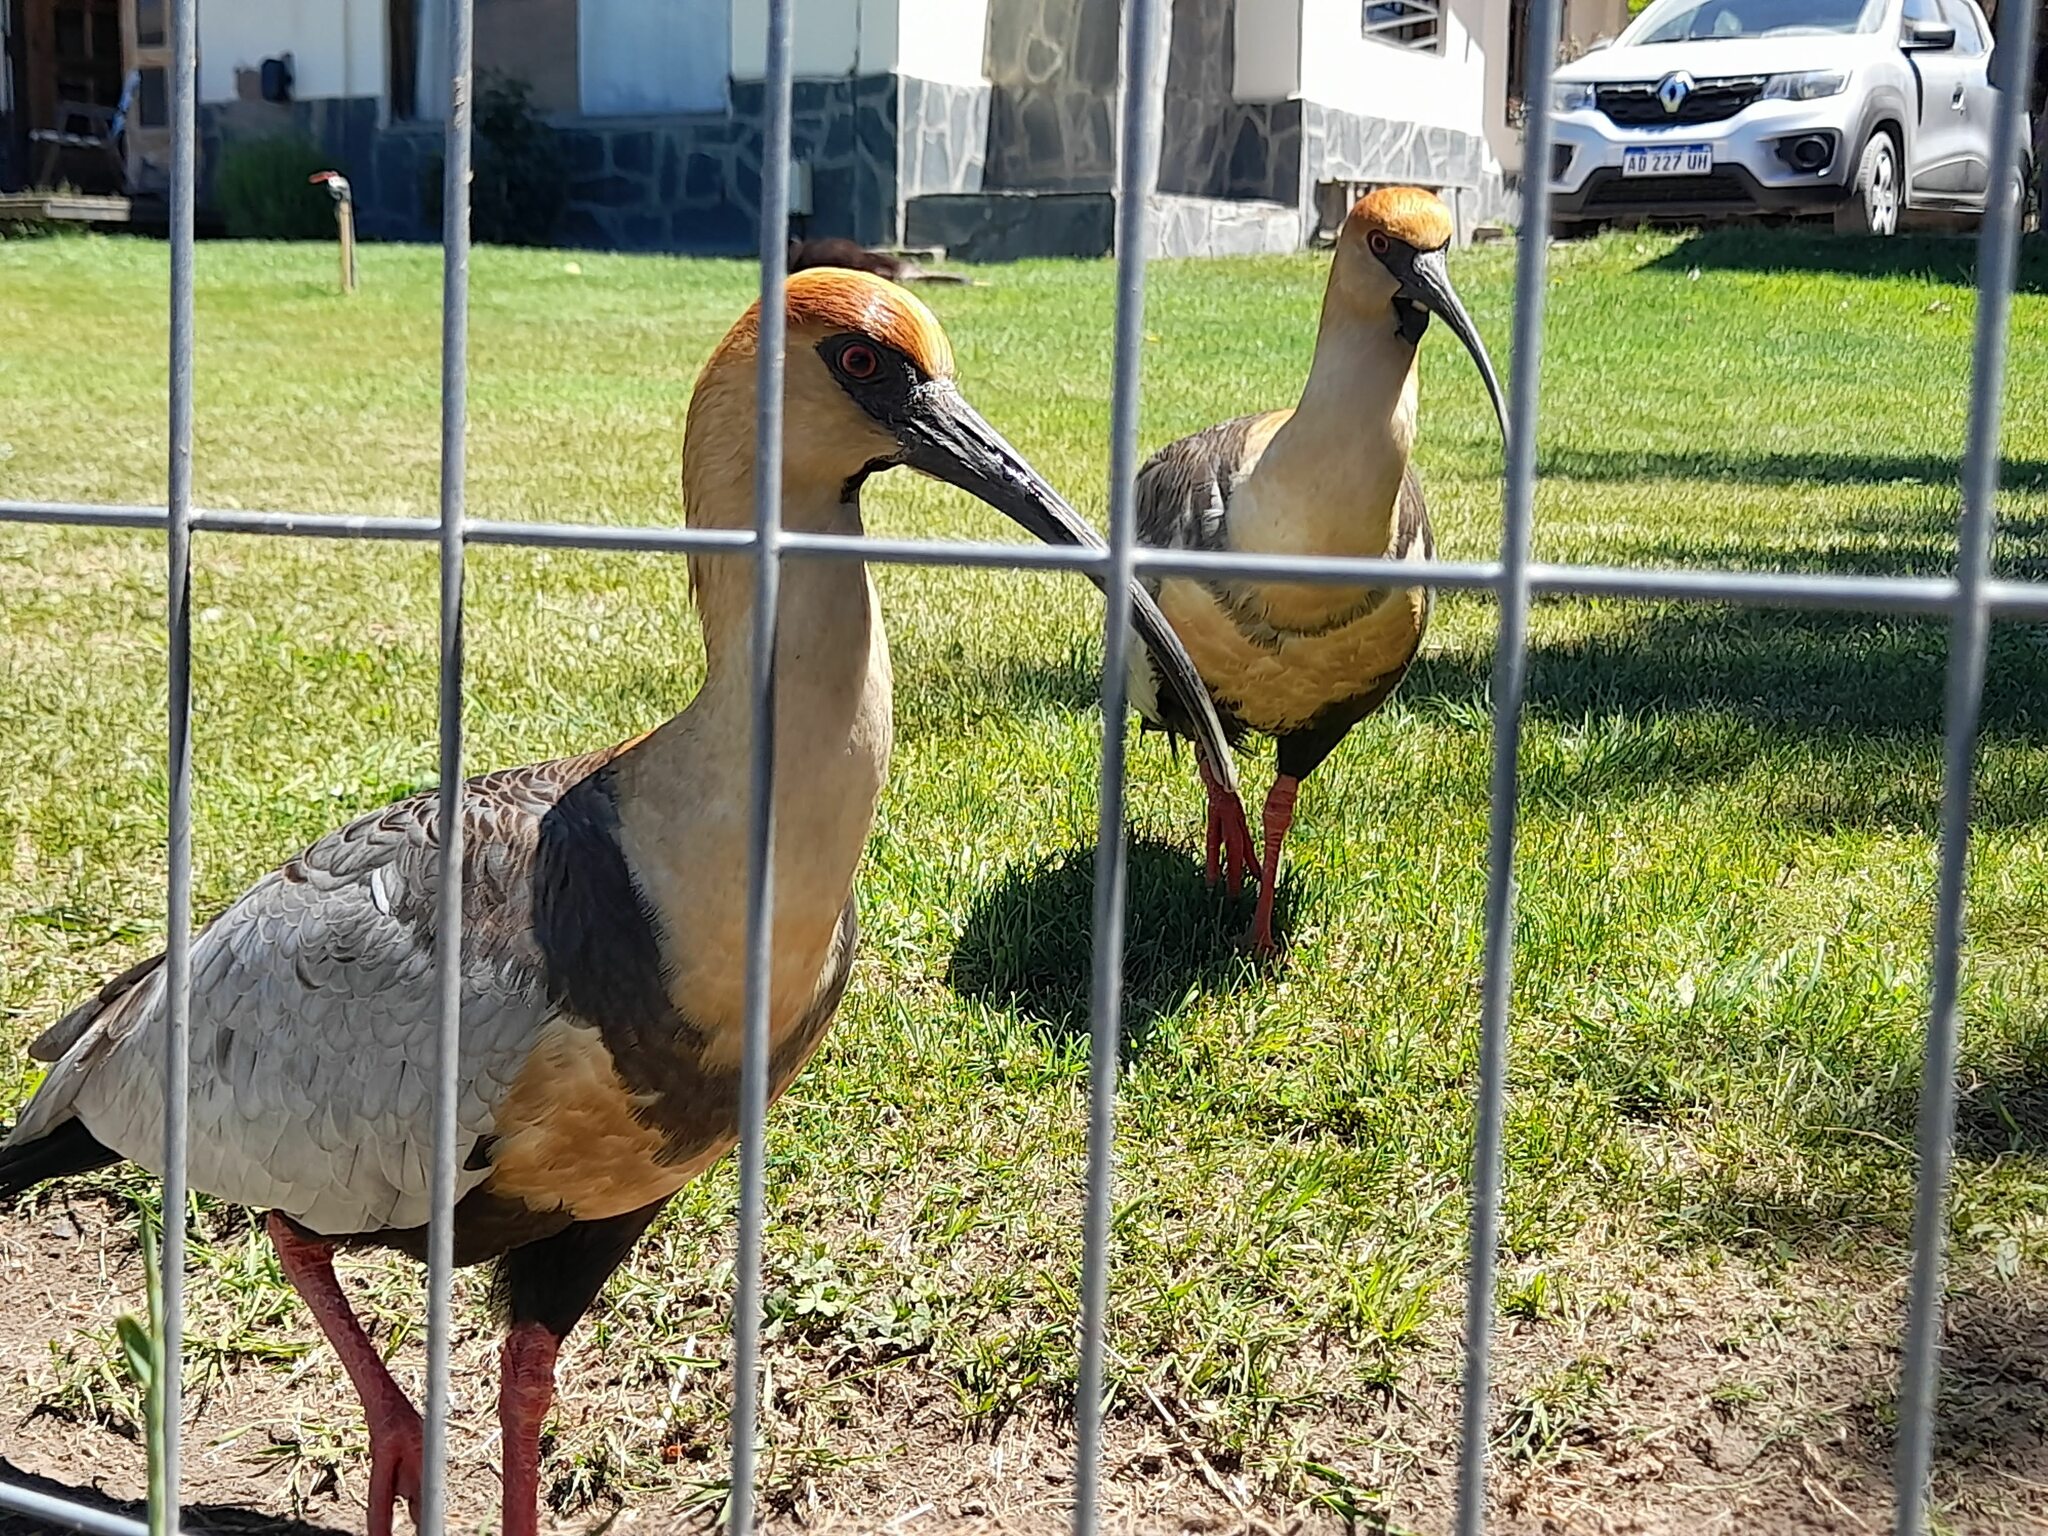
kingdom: Animalia
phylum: Chordata
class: Aves
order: Pelecaniformes
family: Threskiornithidae
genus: Theristicus
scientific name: Theristicus melanopis
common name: Black-faced ibis
